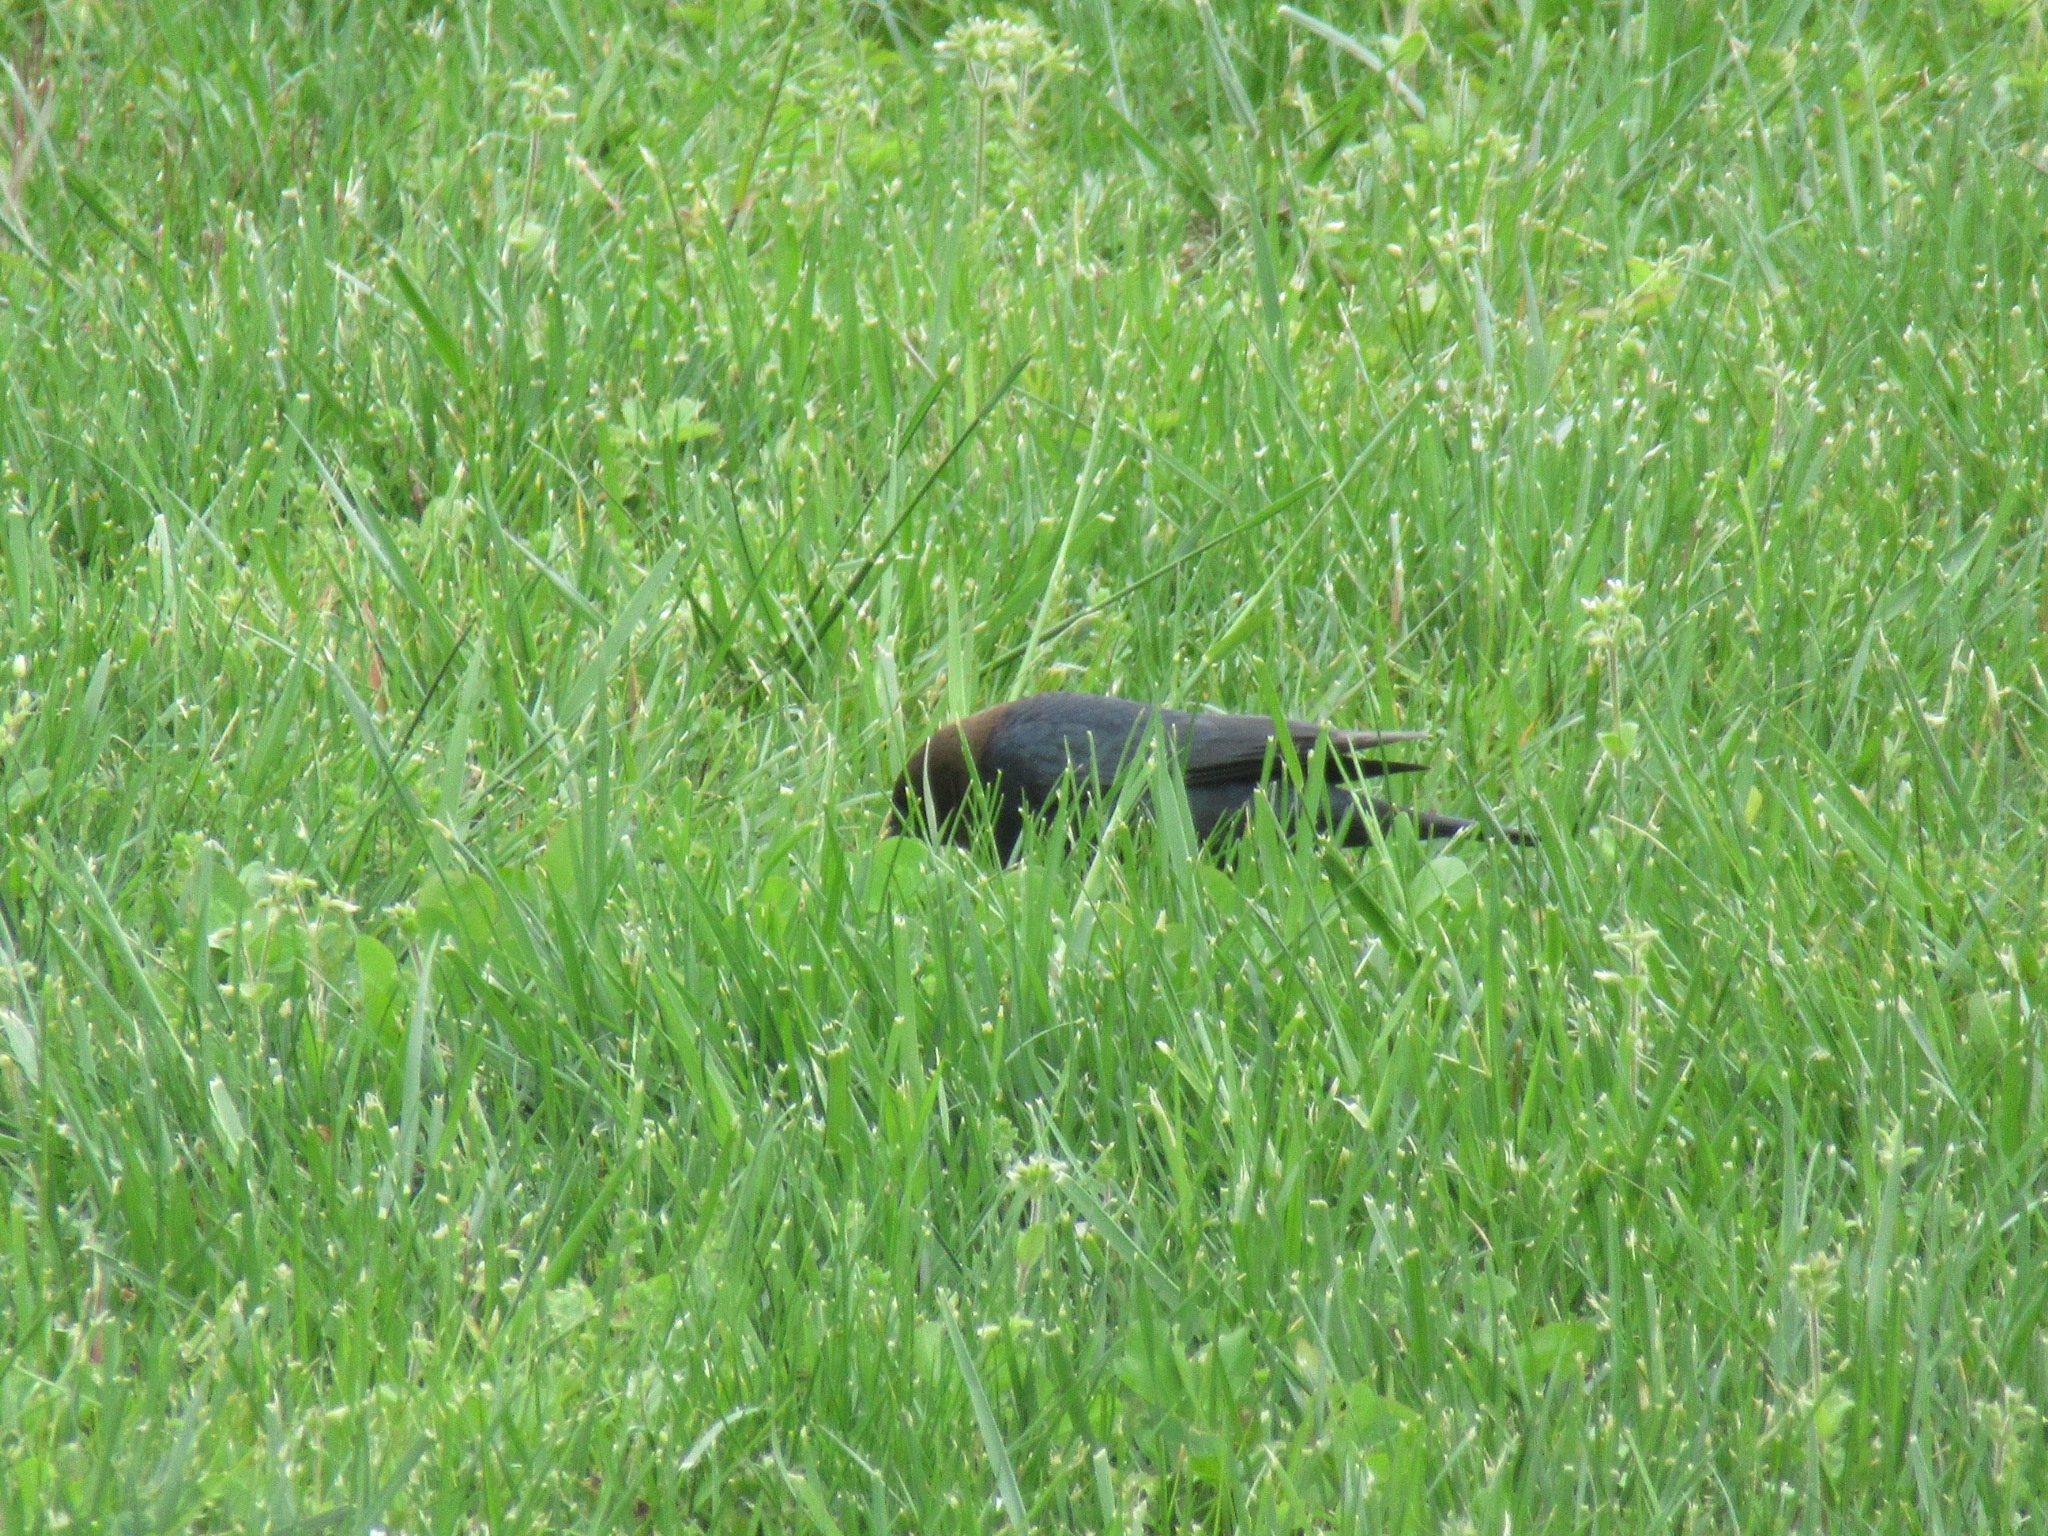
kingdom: Animalia
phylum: Chordata
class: Aves
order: Passeriformes
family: Icteridae
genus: Molothrus
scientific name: Molothrus ater
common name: Brown-headed cowbird
